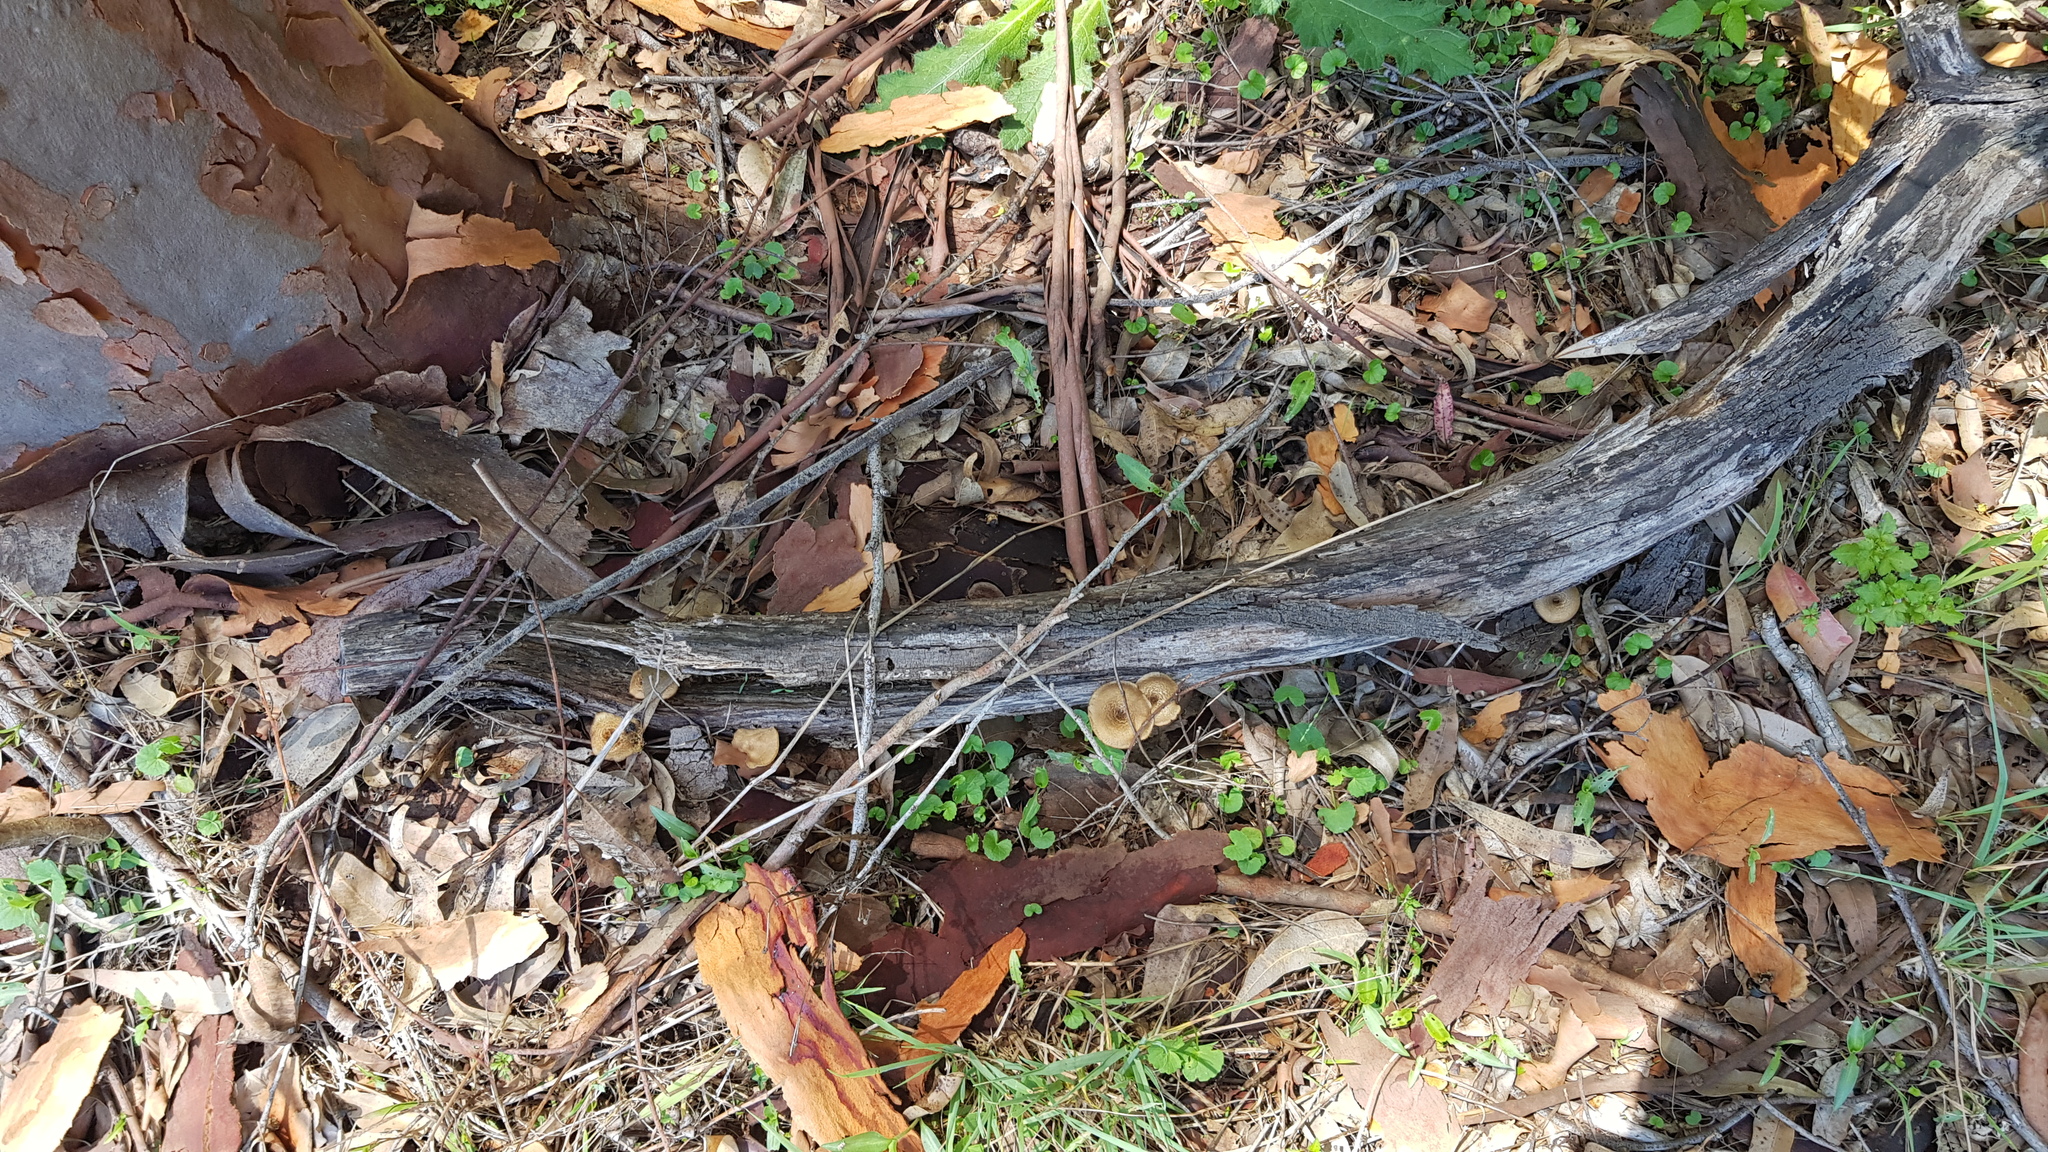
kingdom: Fungi
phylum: Basidiomycota
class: Agaricomycetes
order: Polyporales
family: Polyporaceae
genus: Lentinus
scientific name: Lentinus arcularius
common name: Spring polypore
